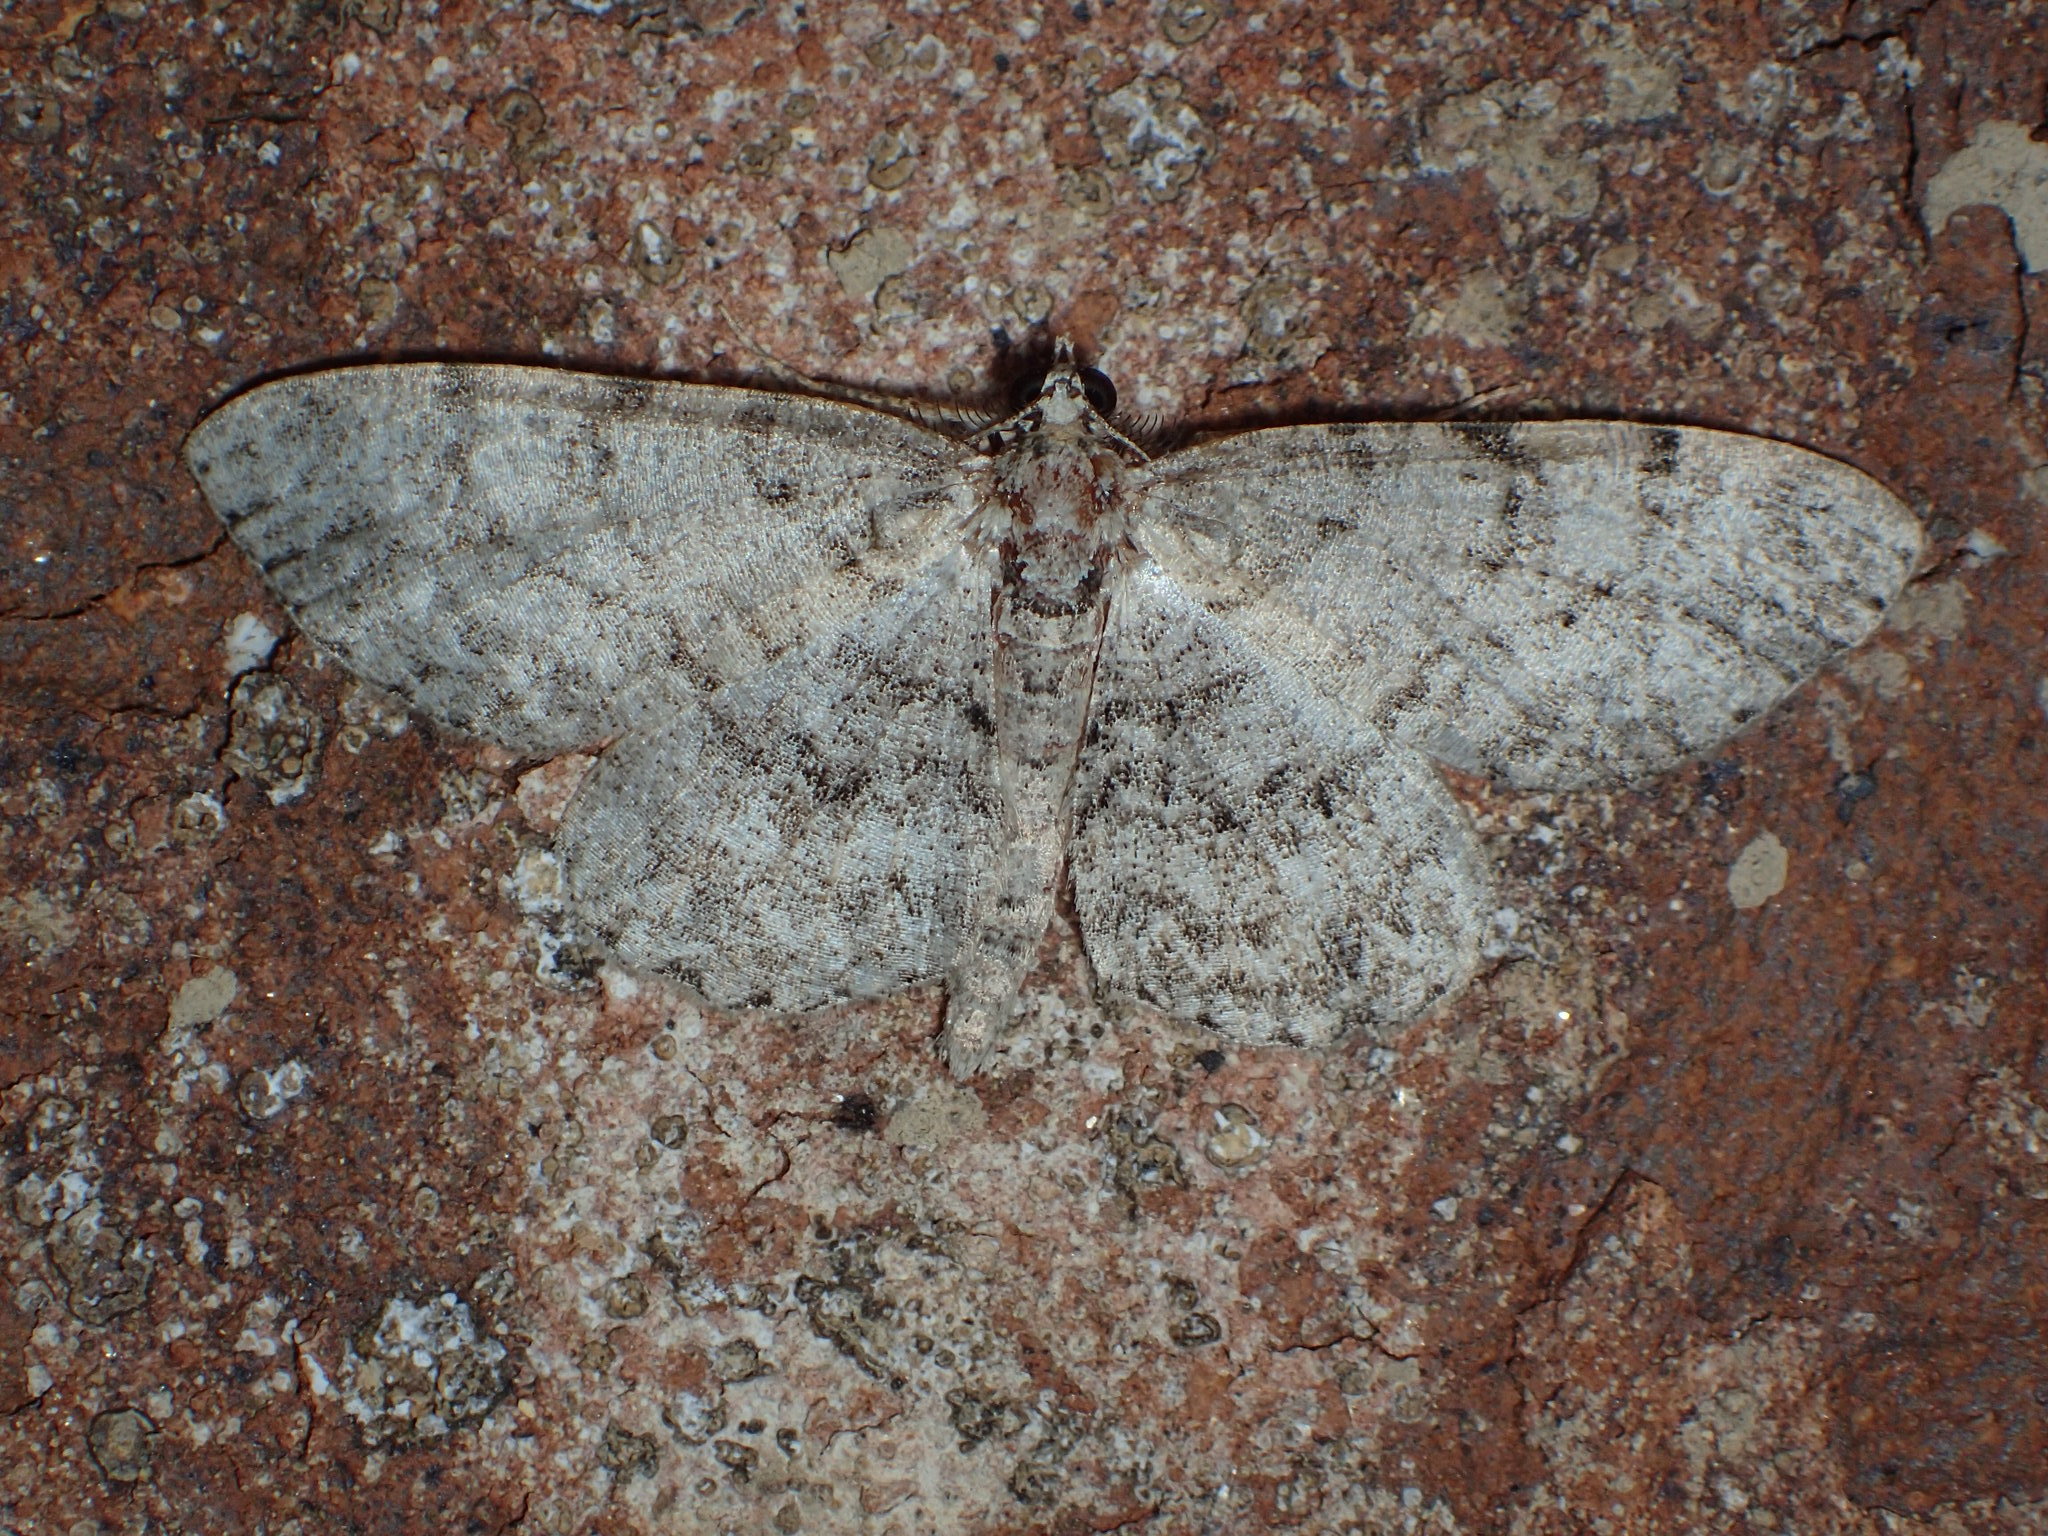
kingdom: Animalia
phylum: Arthropoda
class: Insecta
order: Lepidoptera
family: Geometridae
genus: Protoboarmia
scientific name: Protoboarmia porcelaria
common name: Porcelain gray
